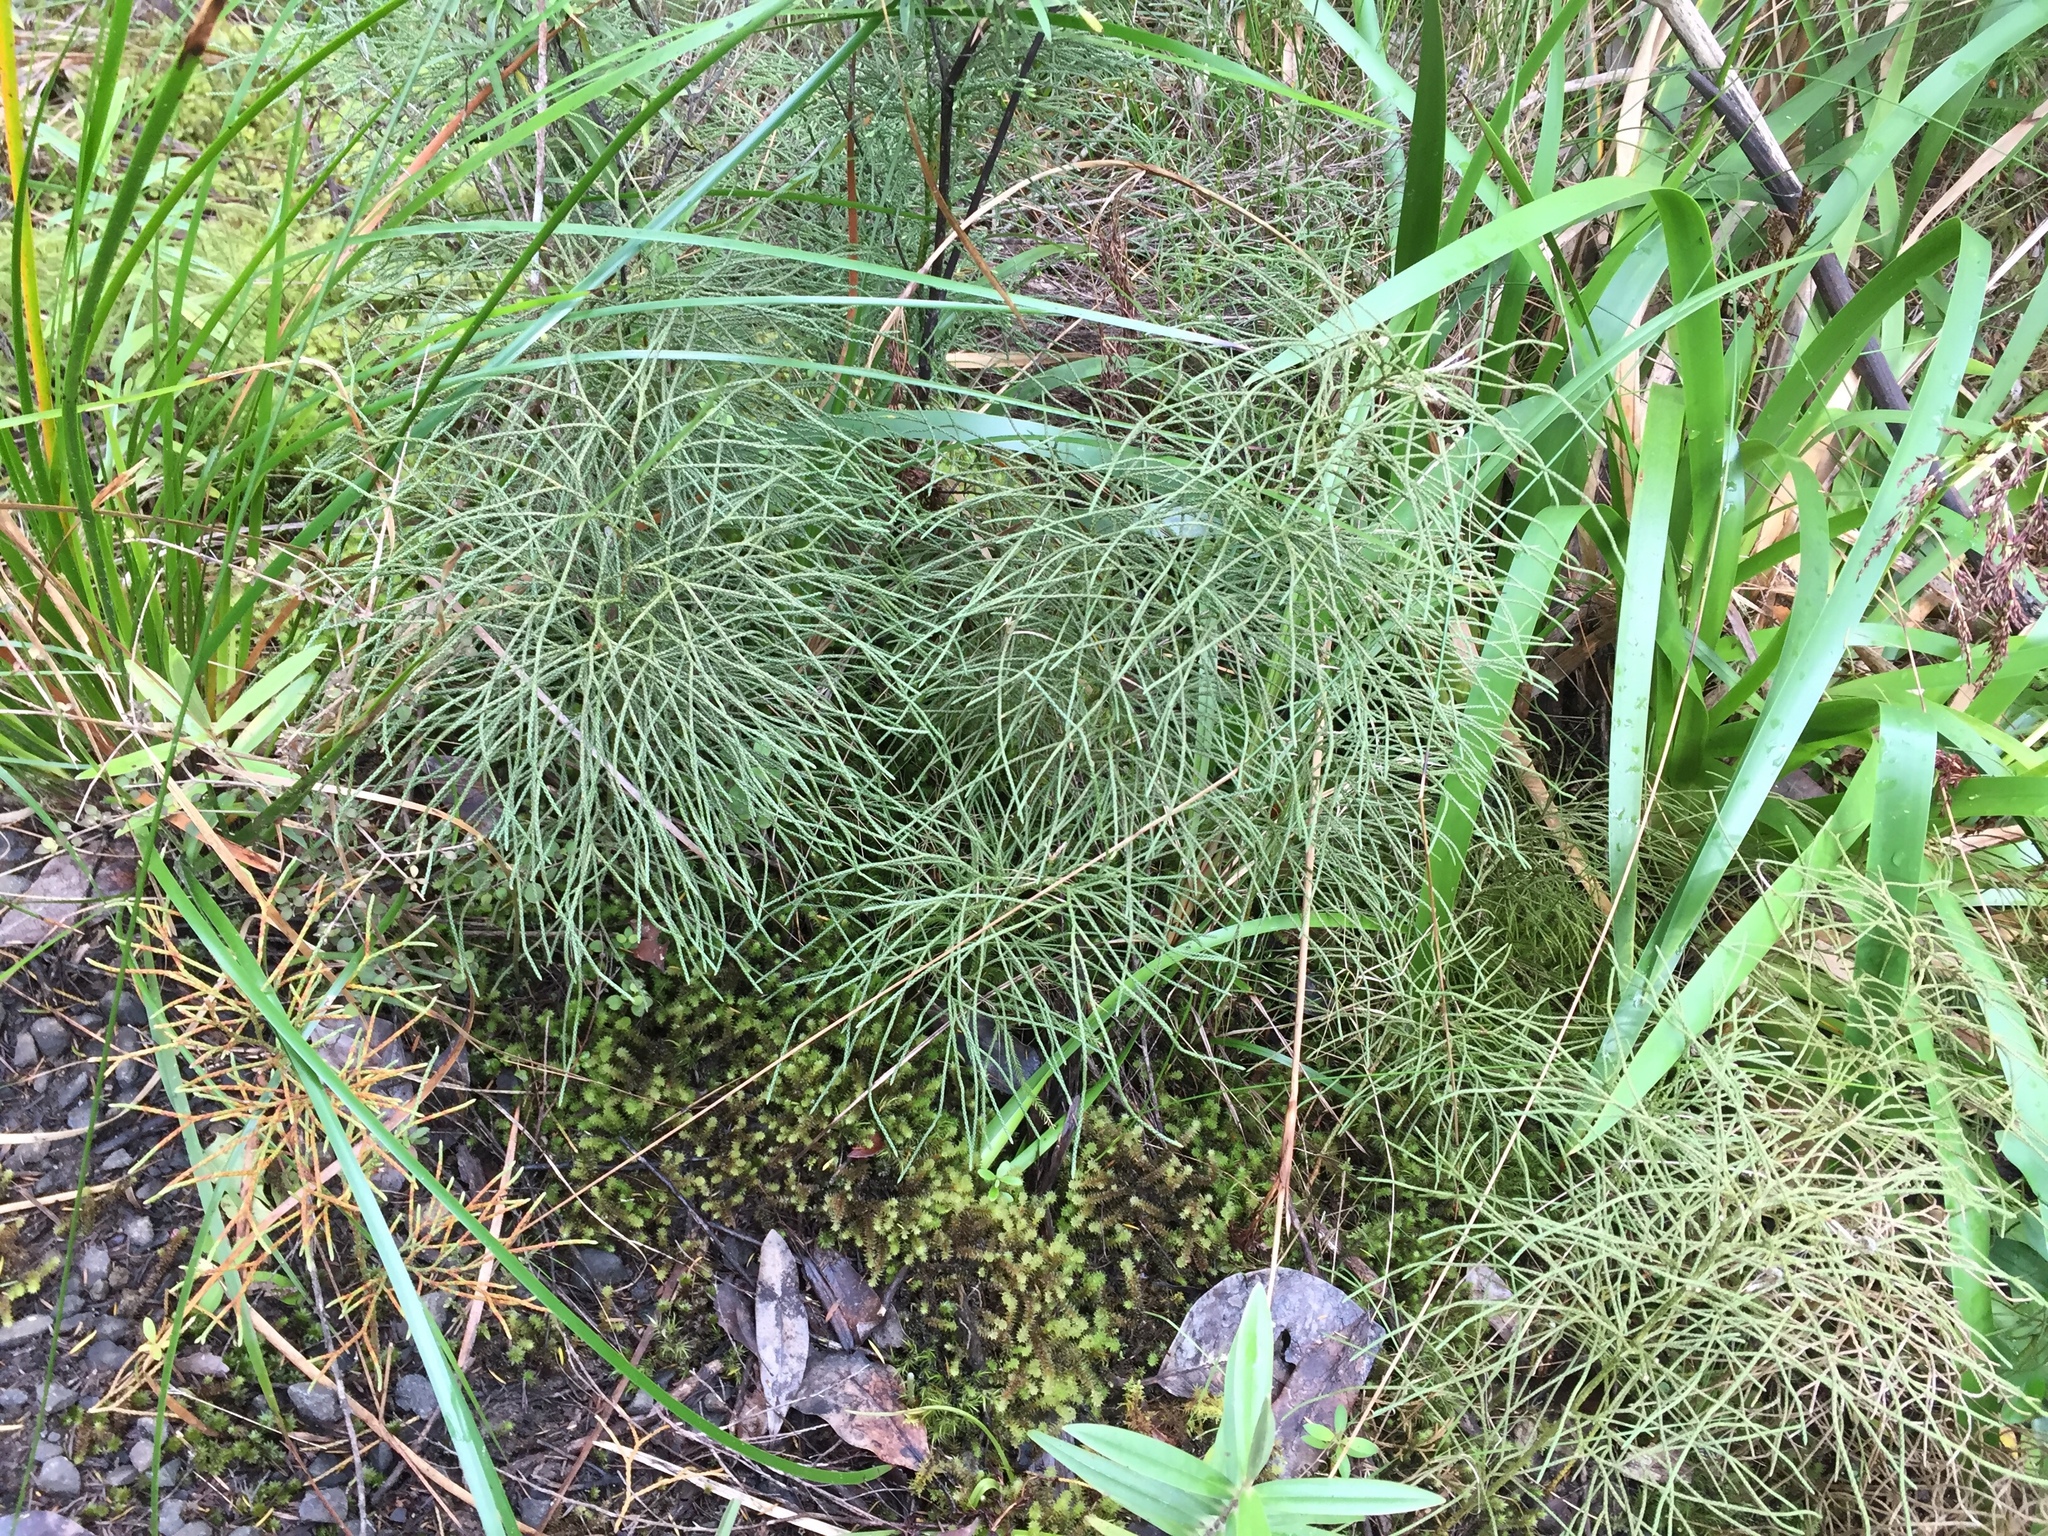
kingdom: Plantae
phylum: Tracheophyta
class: Lycopodiopsida
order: Lycopodiales
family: Lycopodiaceae
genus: Pseudolycopodium
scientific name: Pseudolycopodium densum
